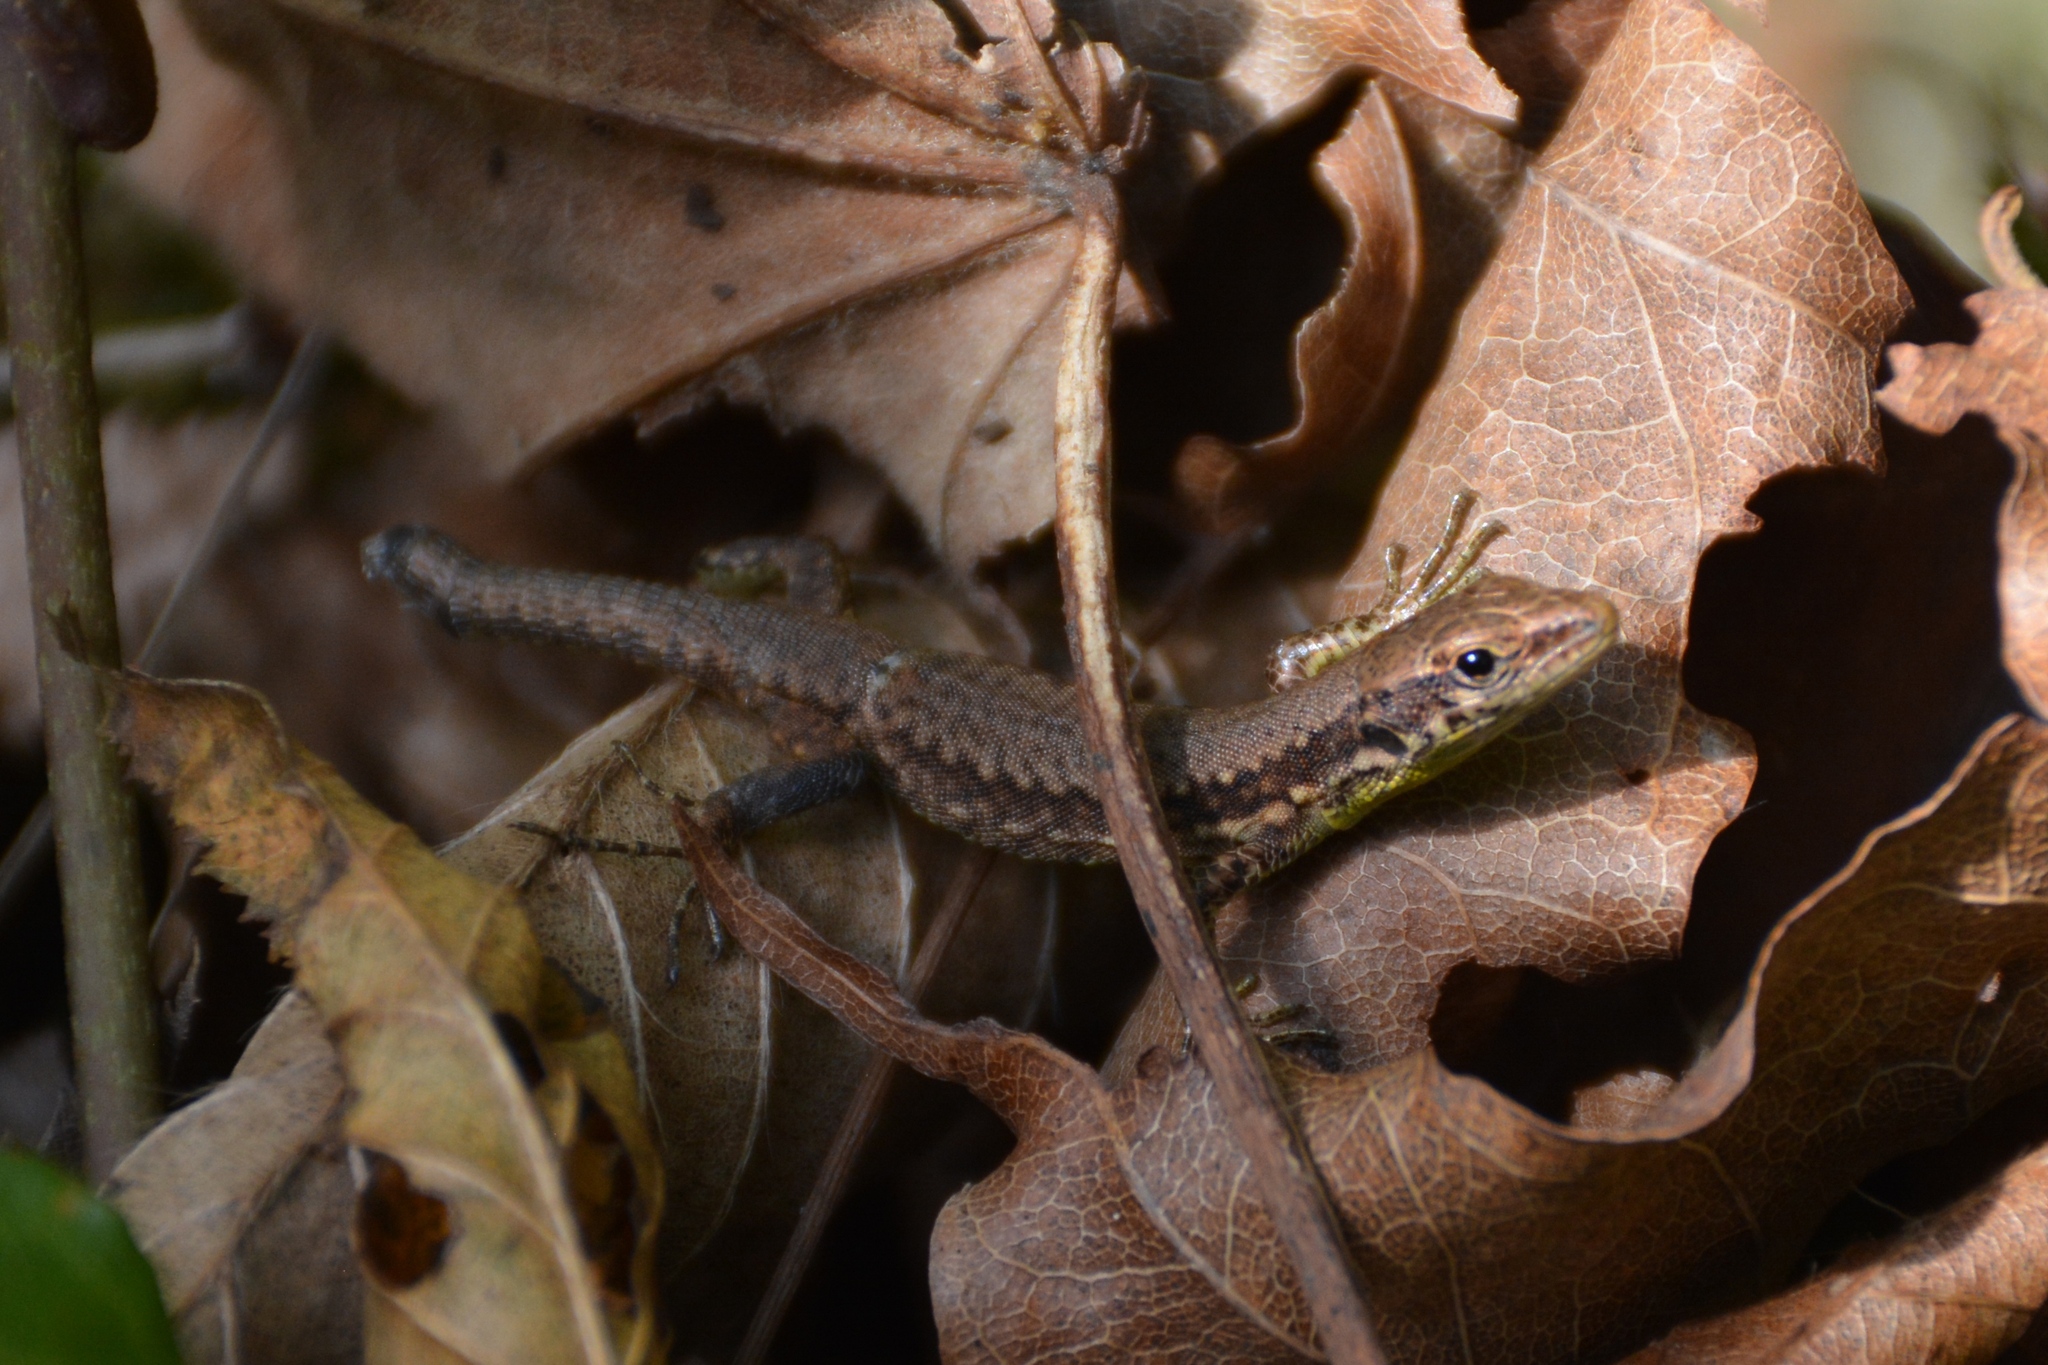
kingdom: Animalia
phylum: Chordata
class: Squamata
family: Lacertidae
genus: Darevskia
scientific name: Darevskia caspica
